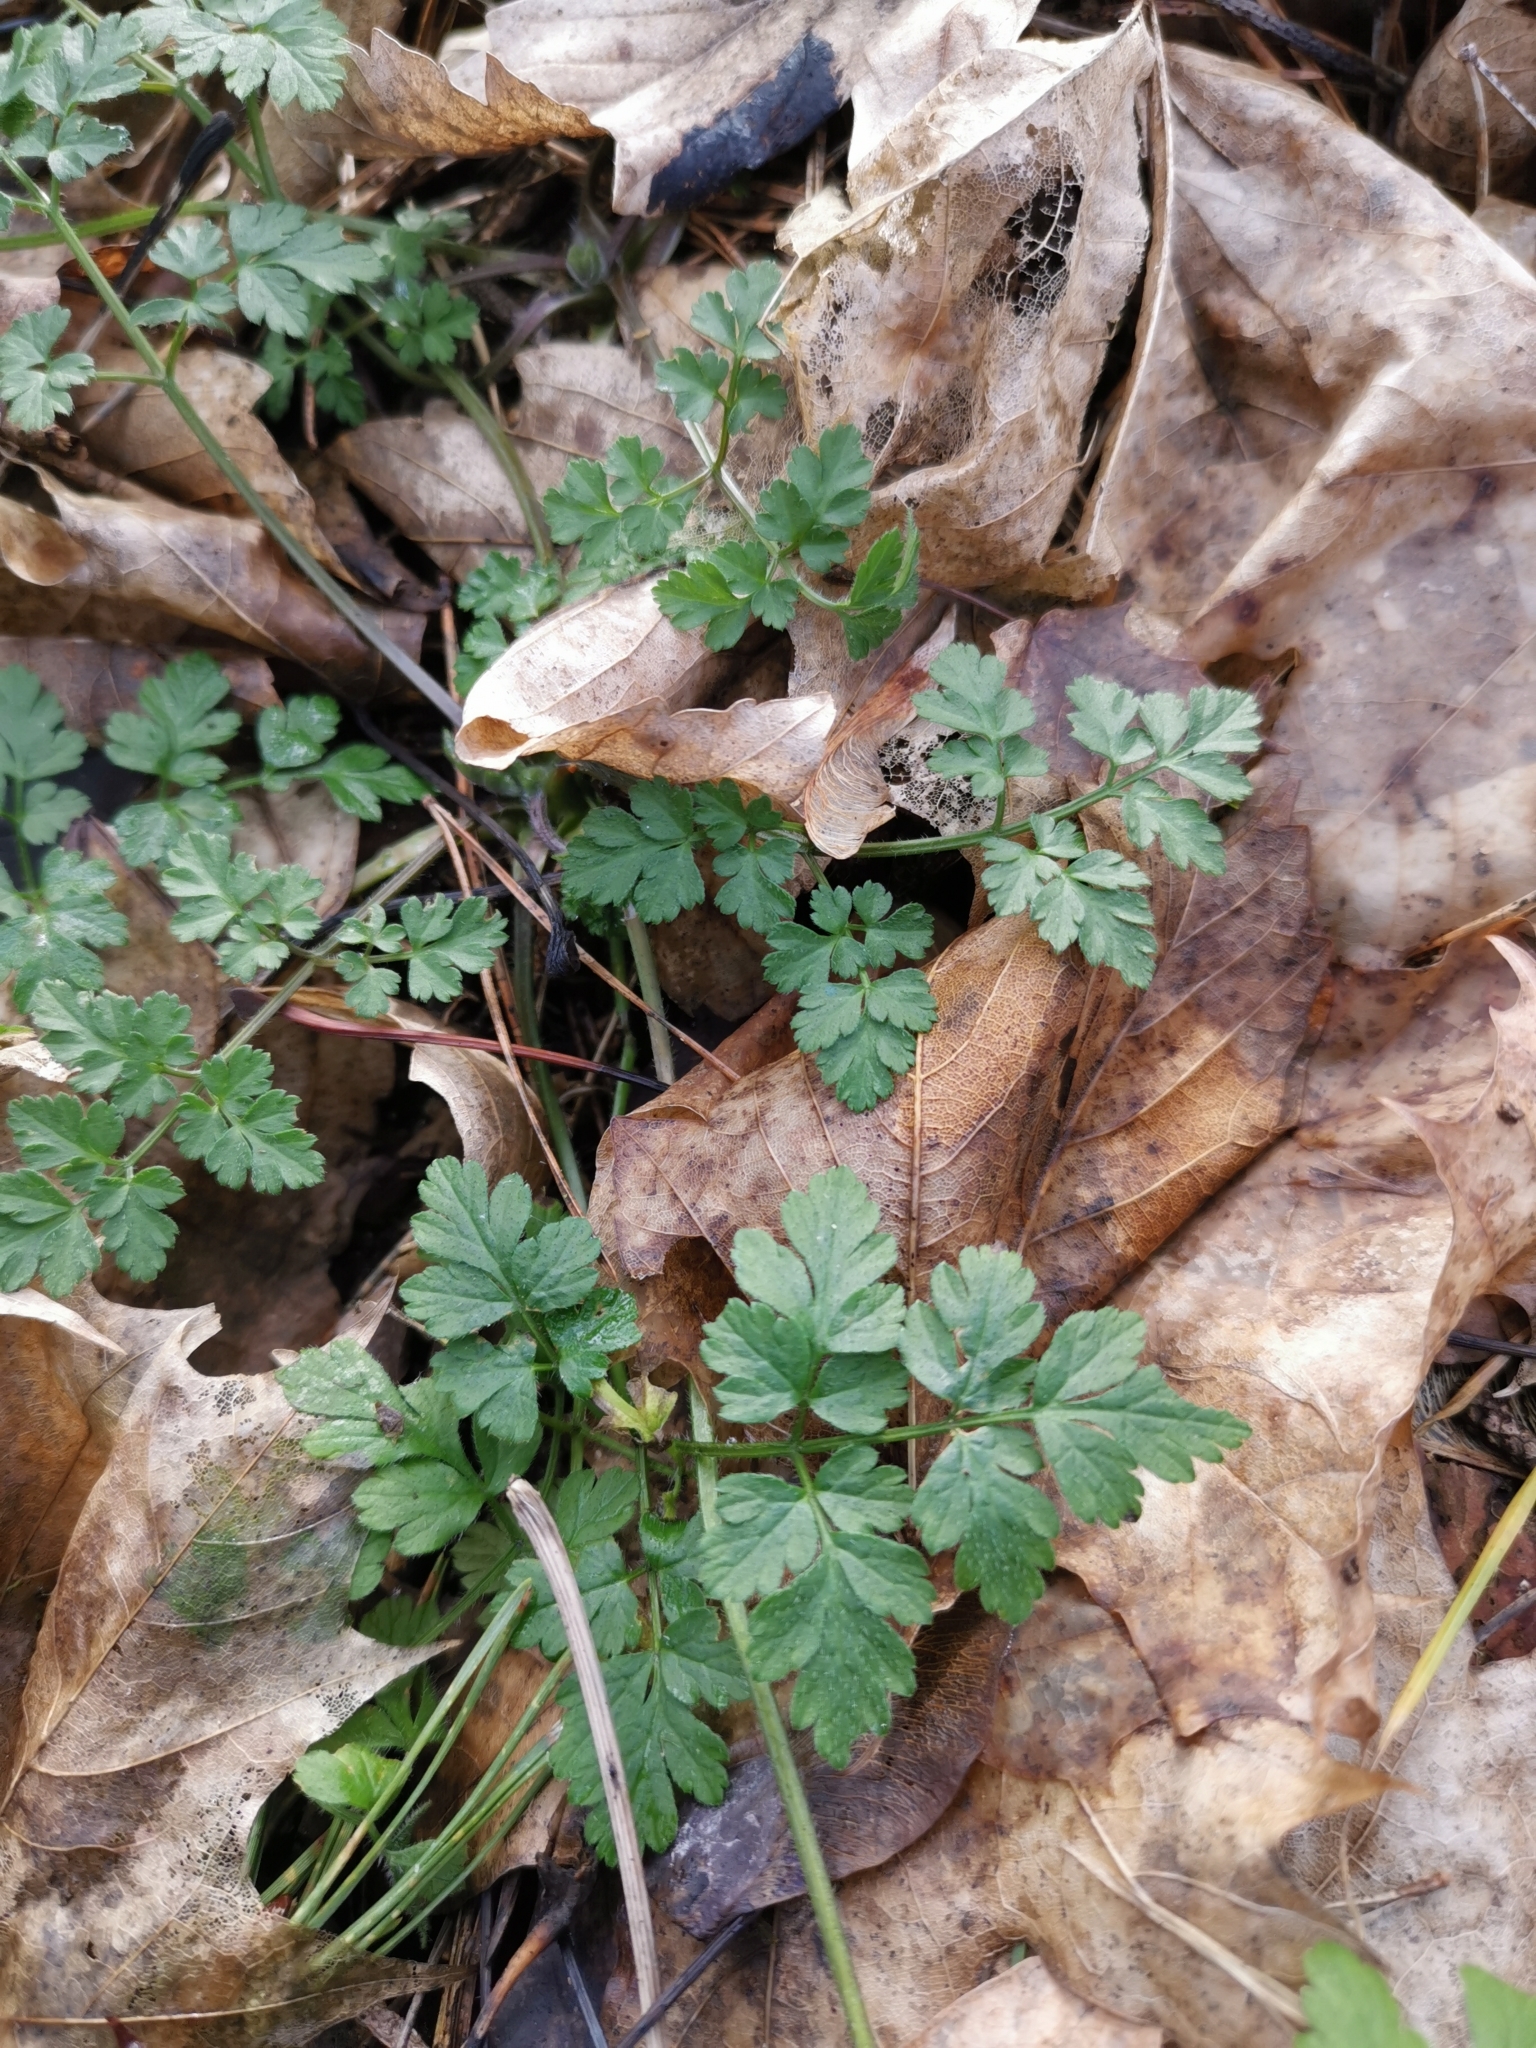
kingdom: Plantae
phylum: Tracheophyta
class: Magnoliopsida
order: Apiales
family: Apiaceae
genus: Chaerophyllum
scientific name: Chaerophyllum temulum
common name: Rough chervil
